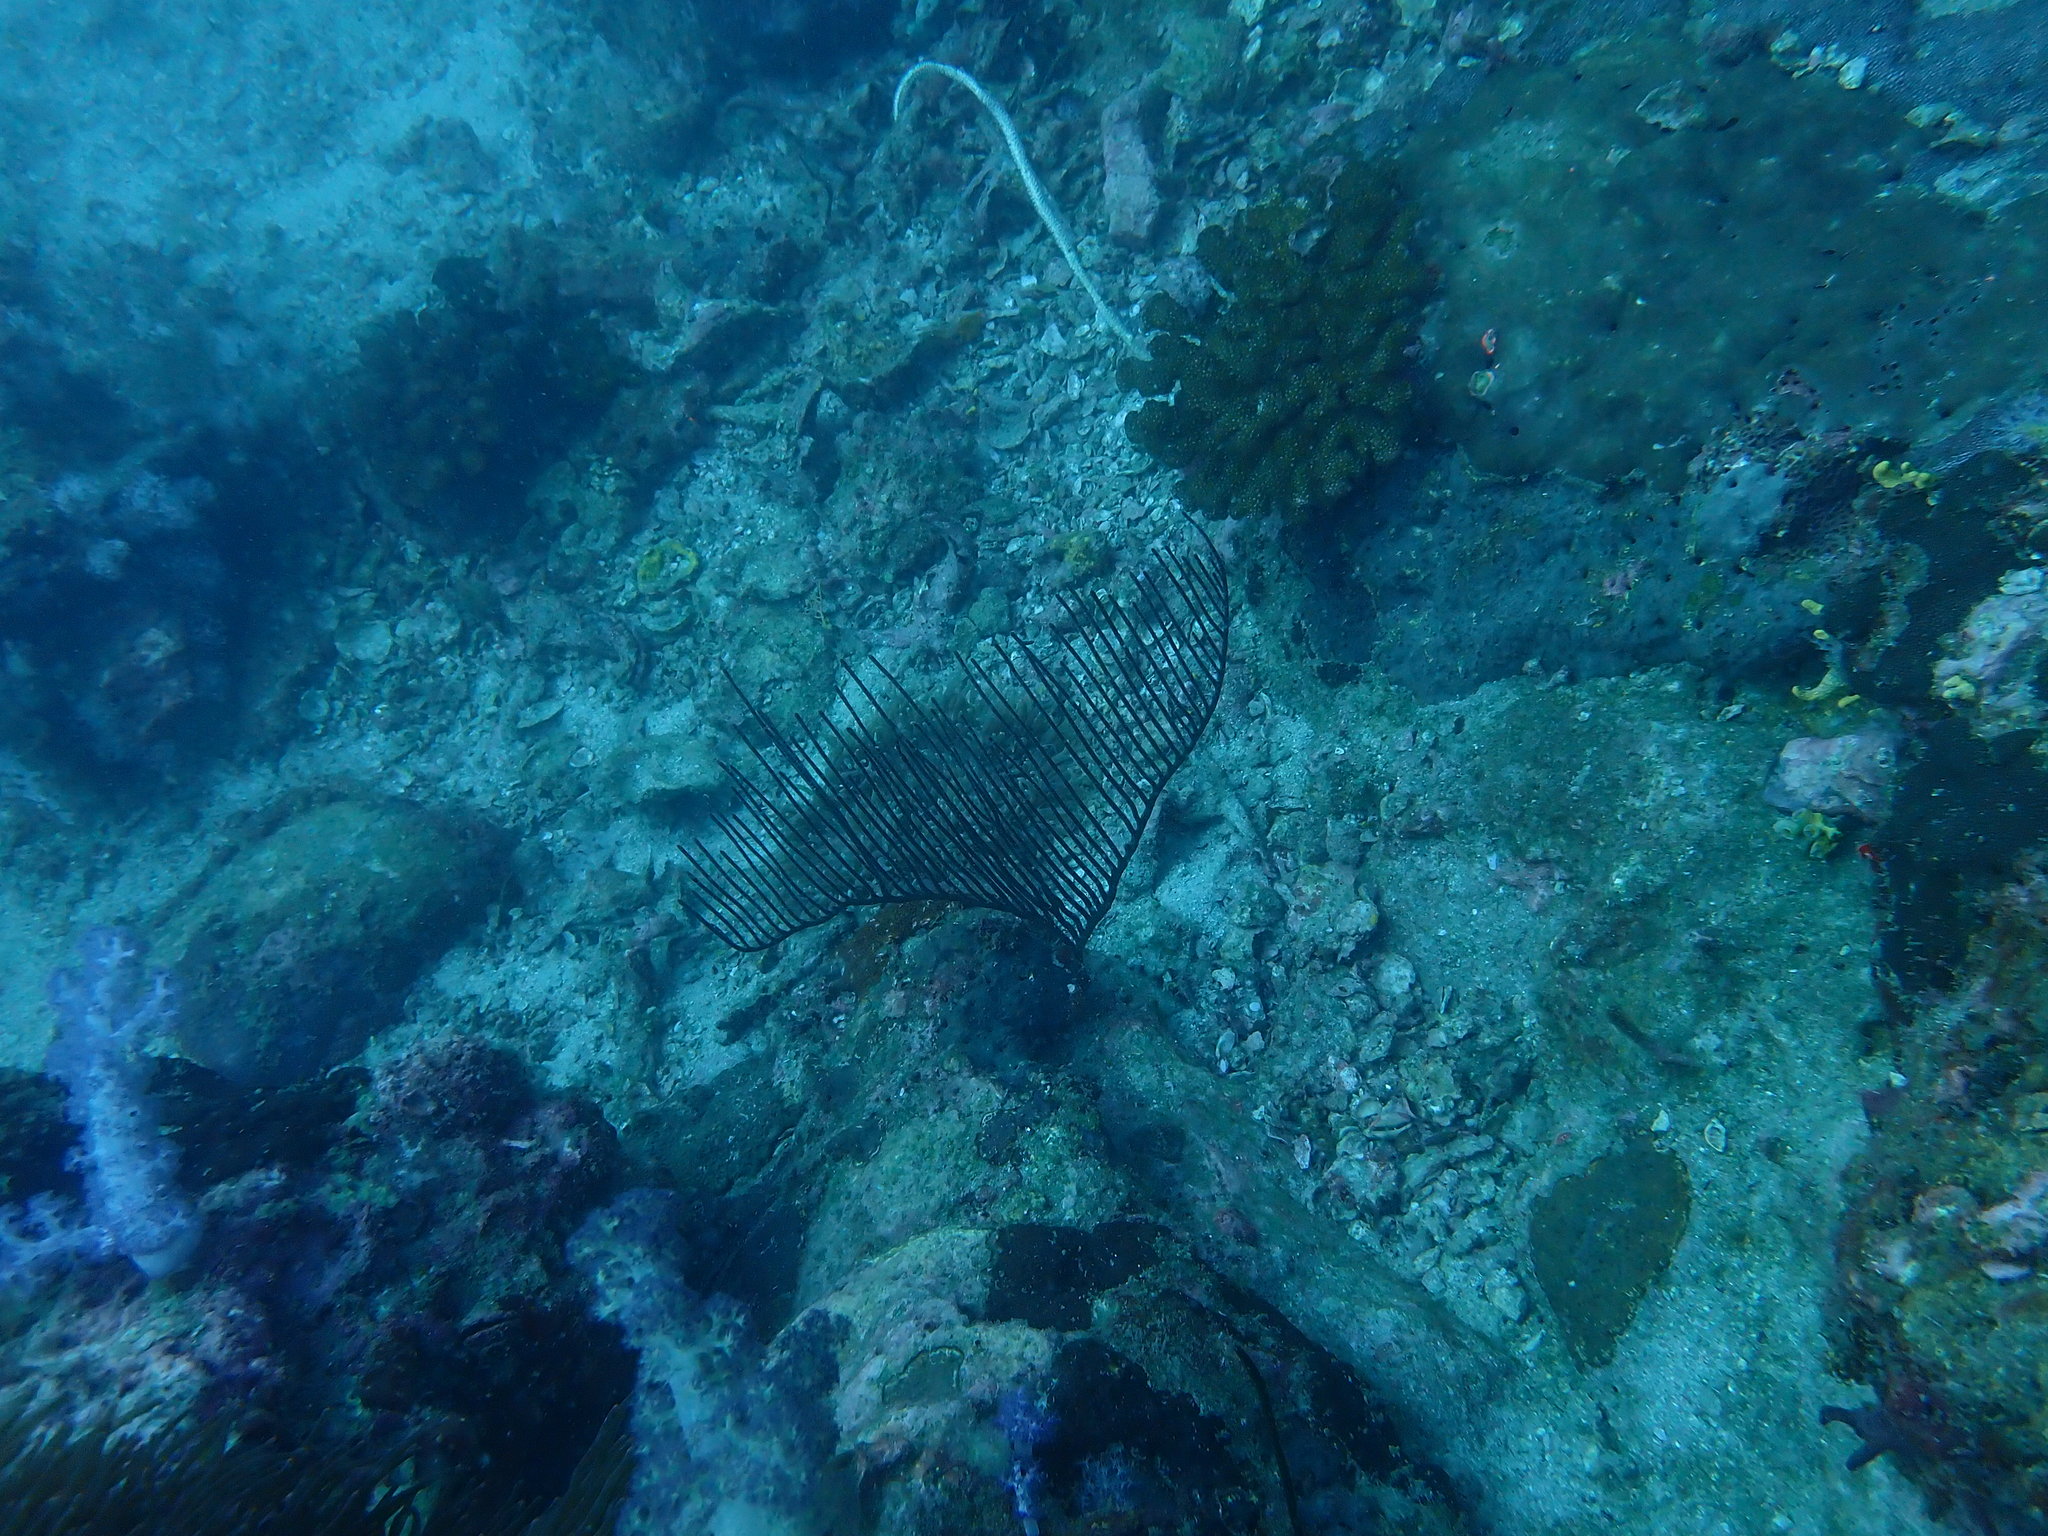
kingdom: Animalia
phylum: Cnidaria
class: Anthozoa
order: Scleralcyonacea
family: Ellisellidae
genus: Ctenocella
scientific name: Ctenocella pectinata
